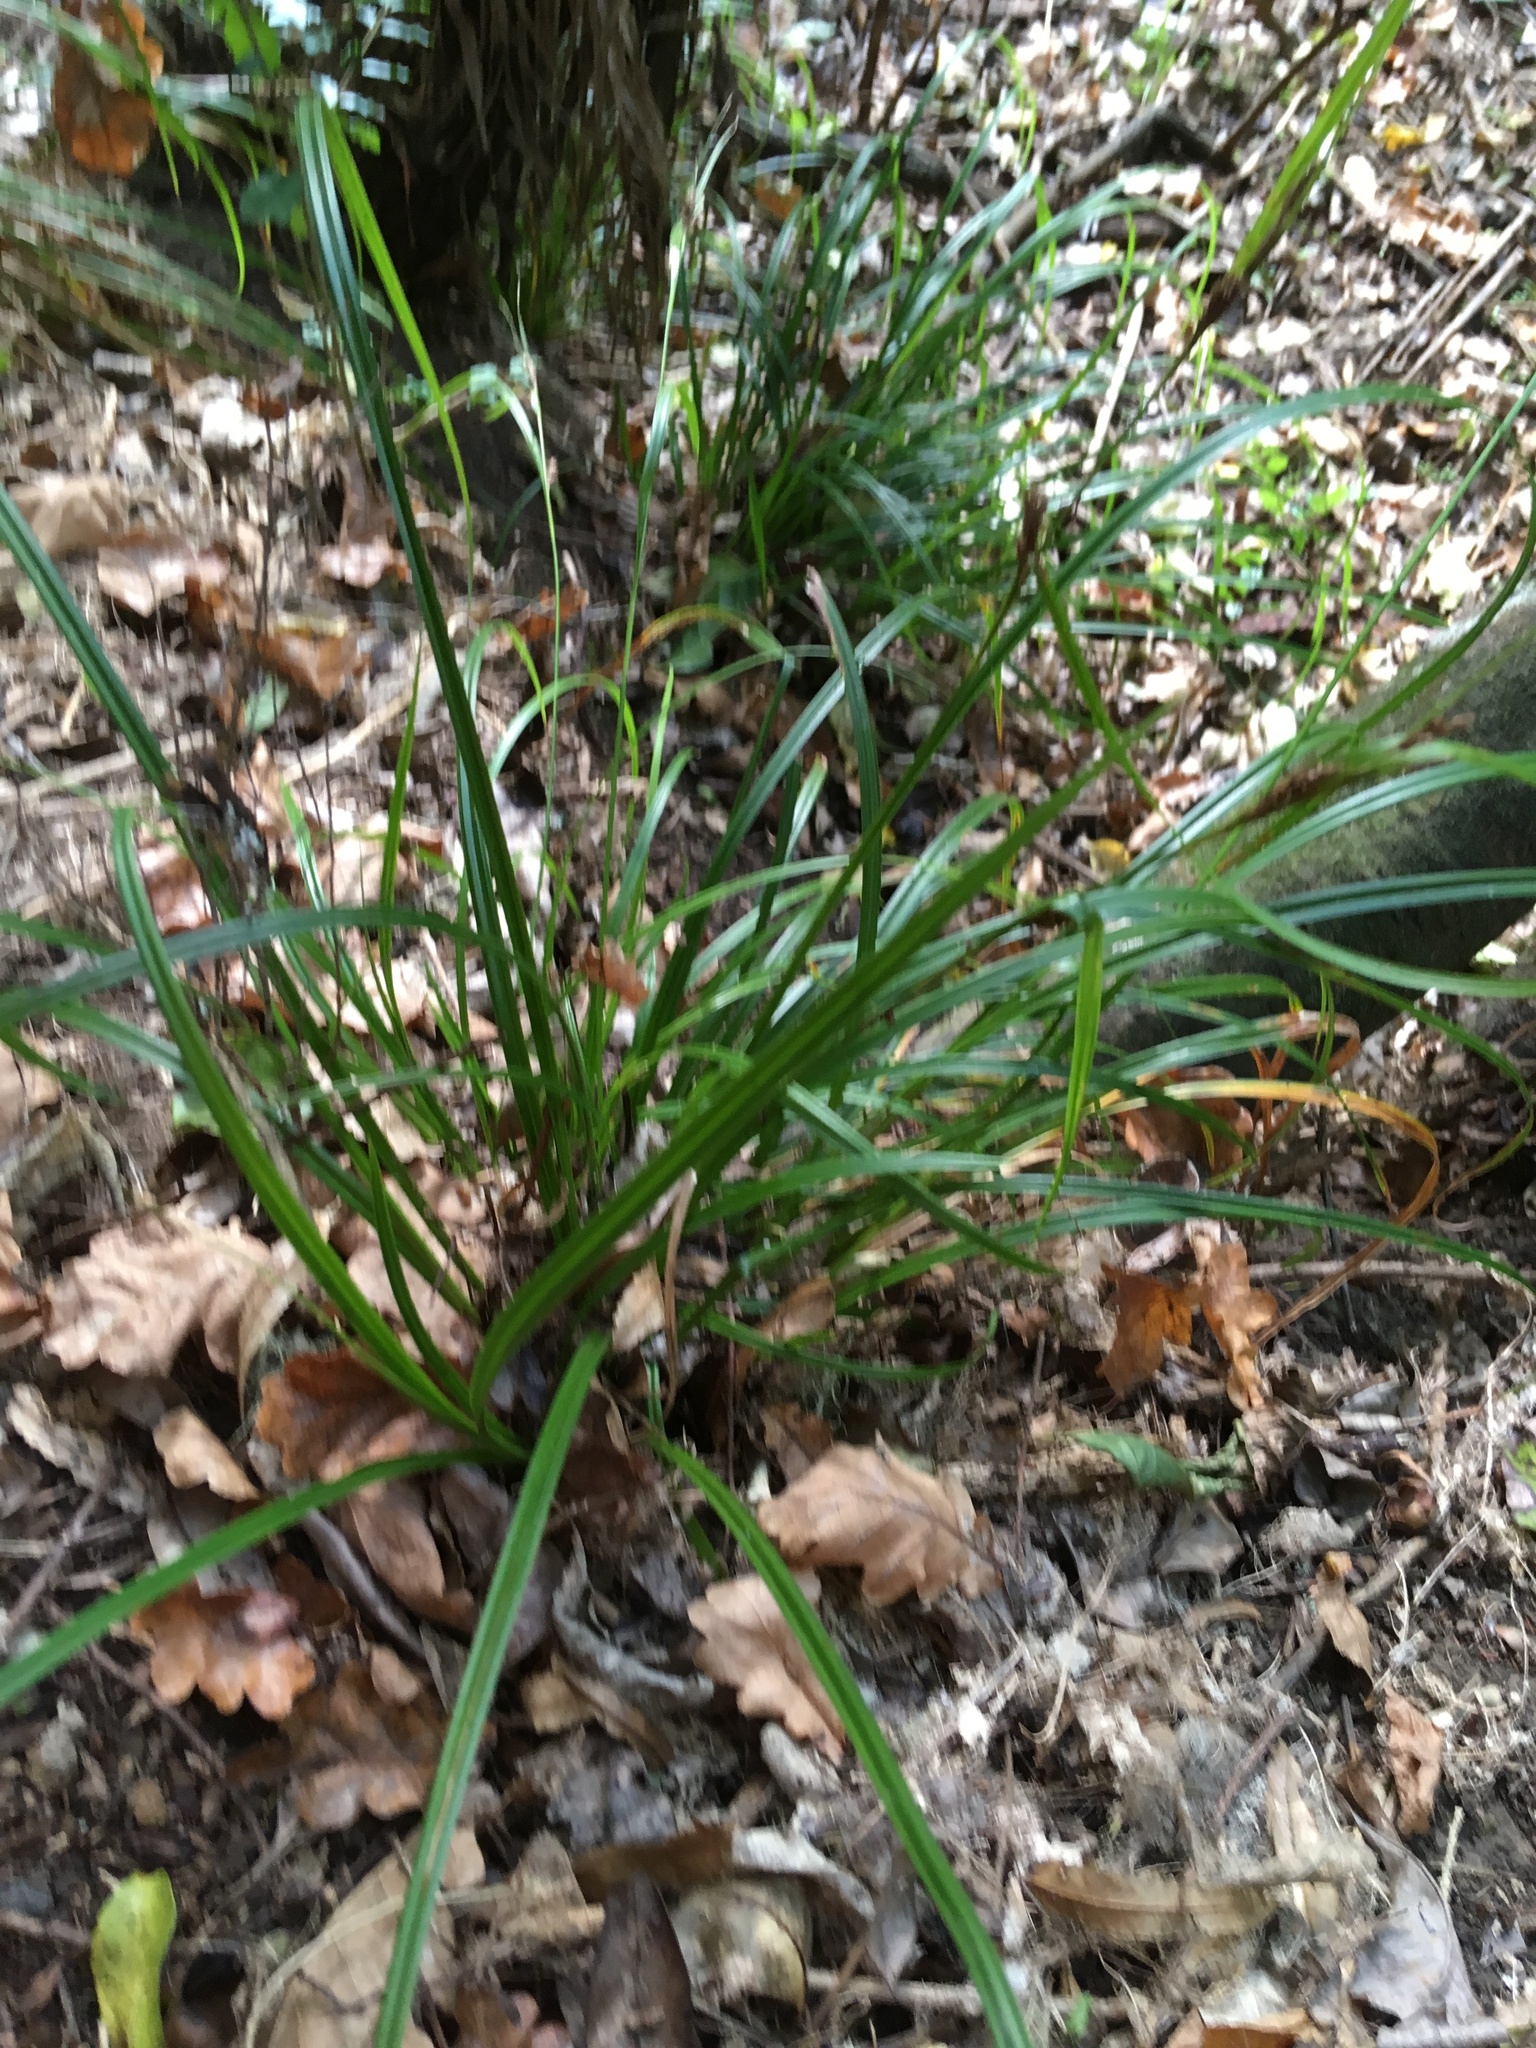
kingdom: Plantae
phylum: Tracheophyta
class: Liliopsida
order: Poales
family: Cyperaceae
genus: Carex
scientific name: Carex lambertiana
